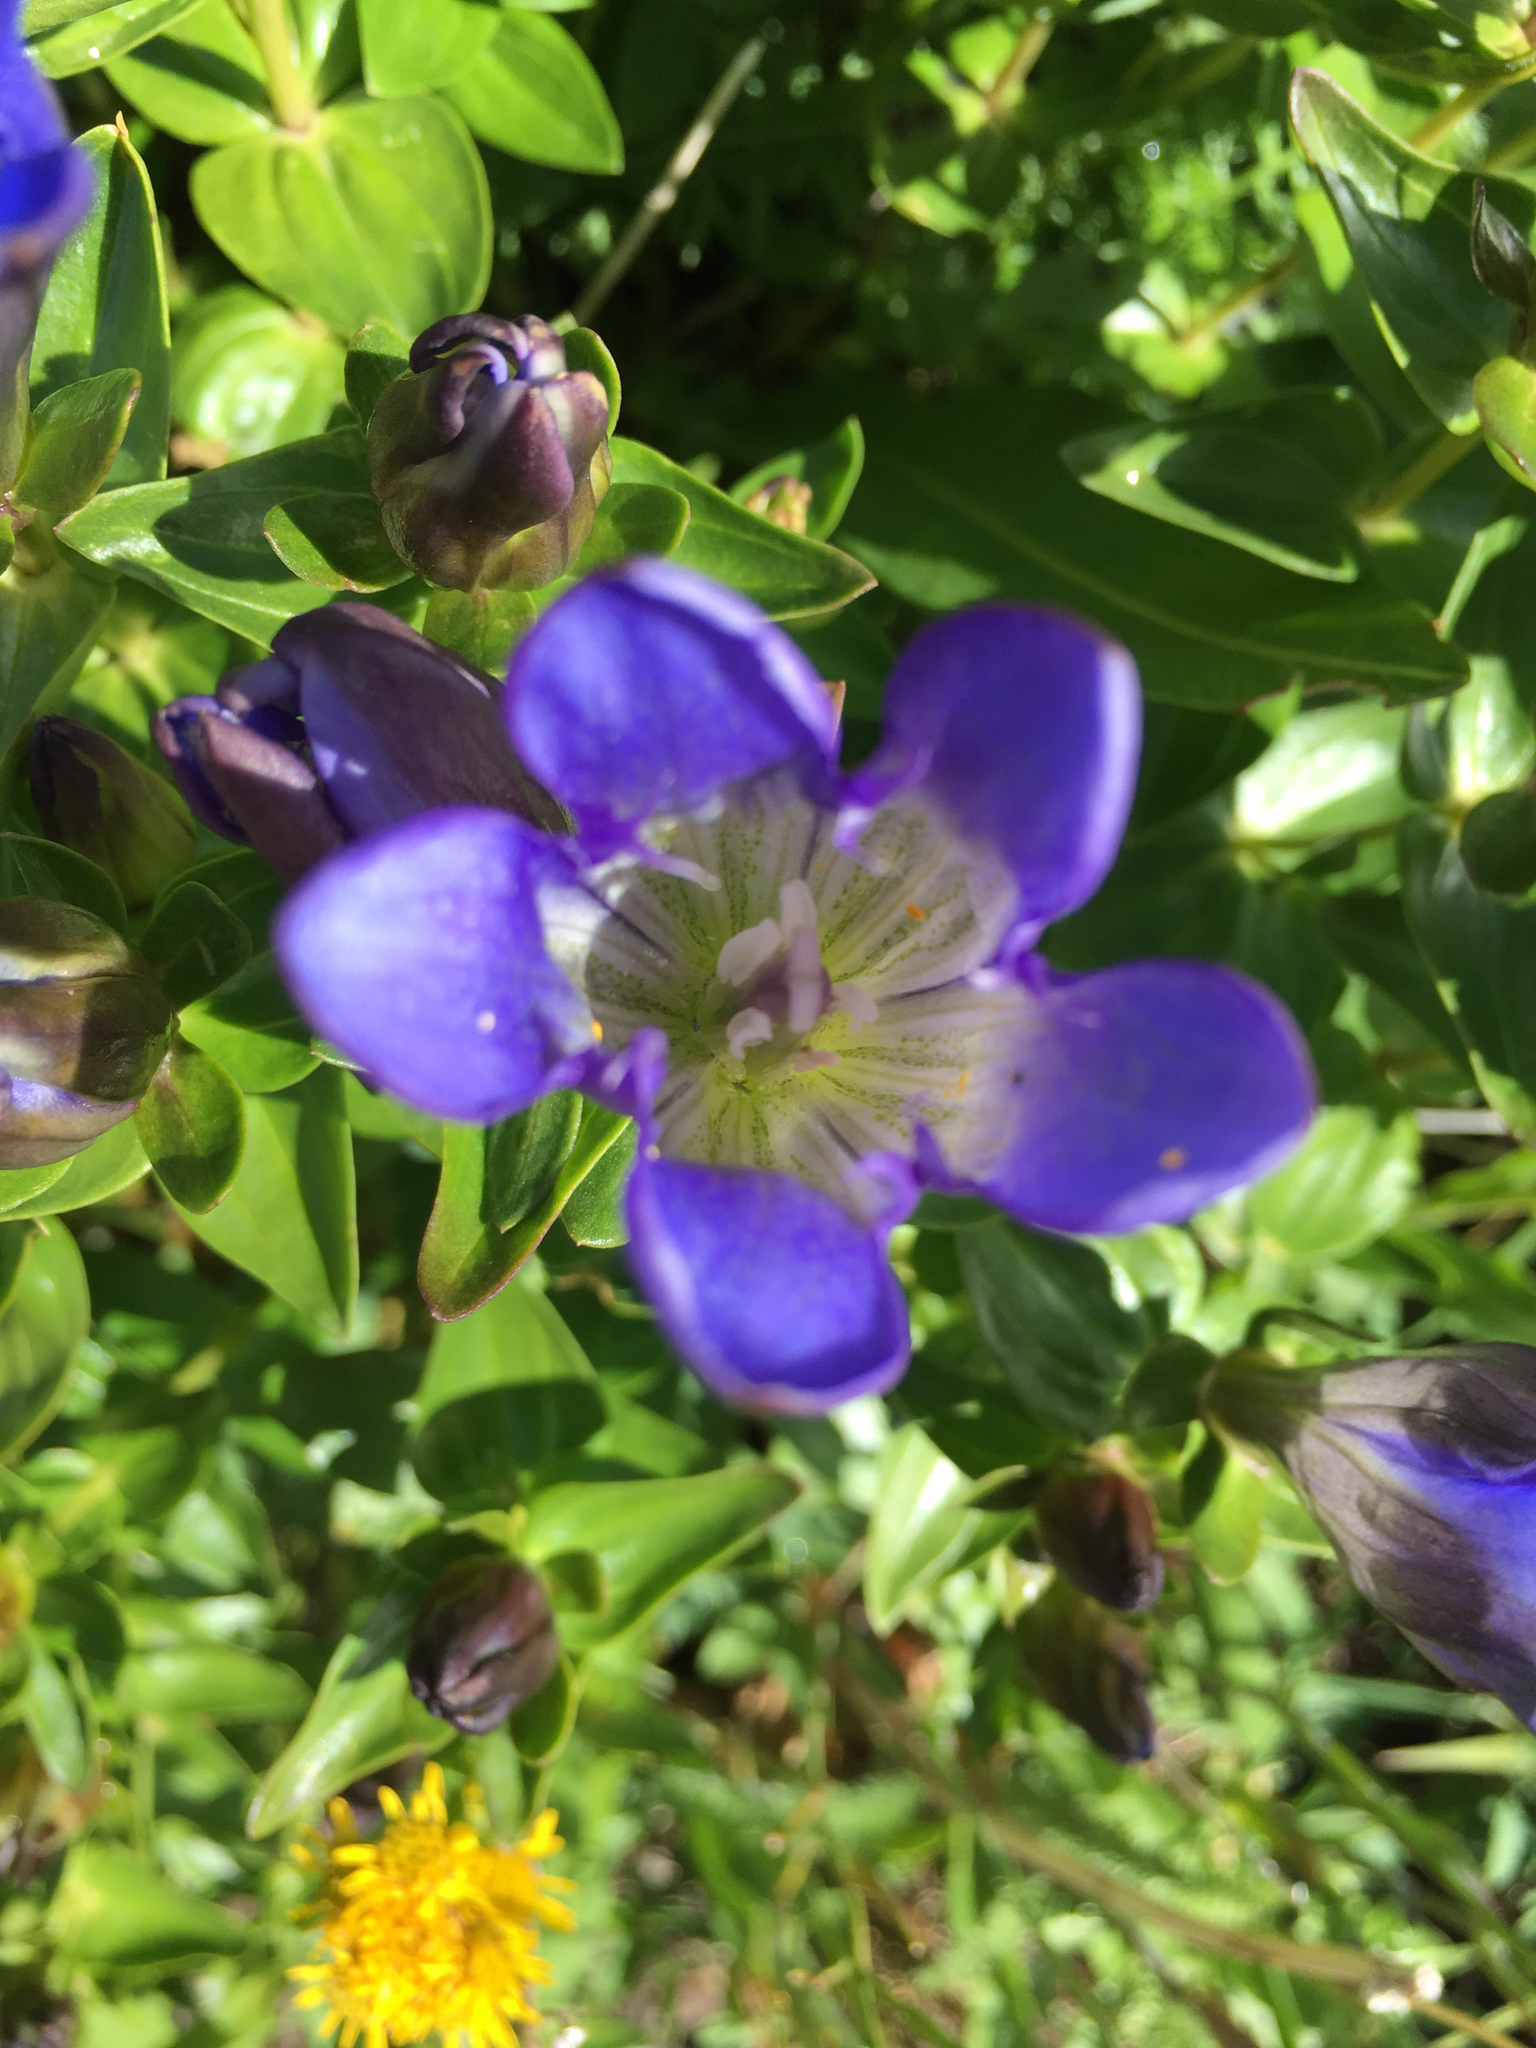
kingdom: Plantae
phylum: Tracheophyta
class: Magnoliopsida
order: Gentianales
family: Gentianaceae
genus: Gentiana
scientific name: Gentiana calycosa
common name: Rainier pleated gentian
